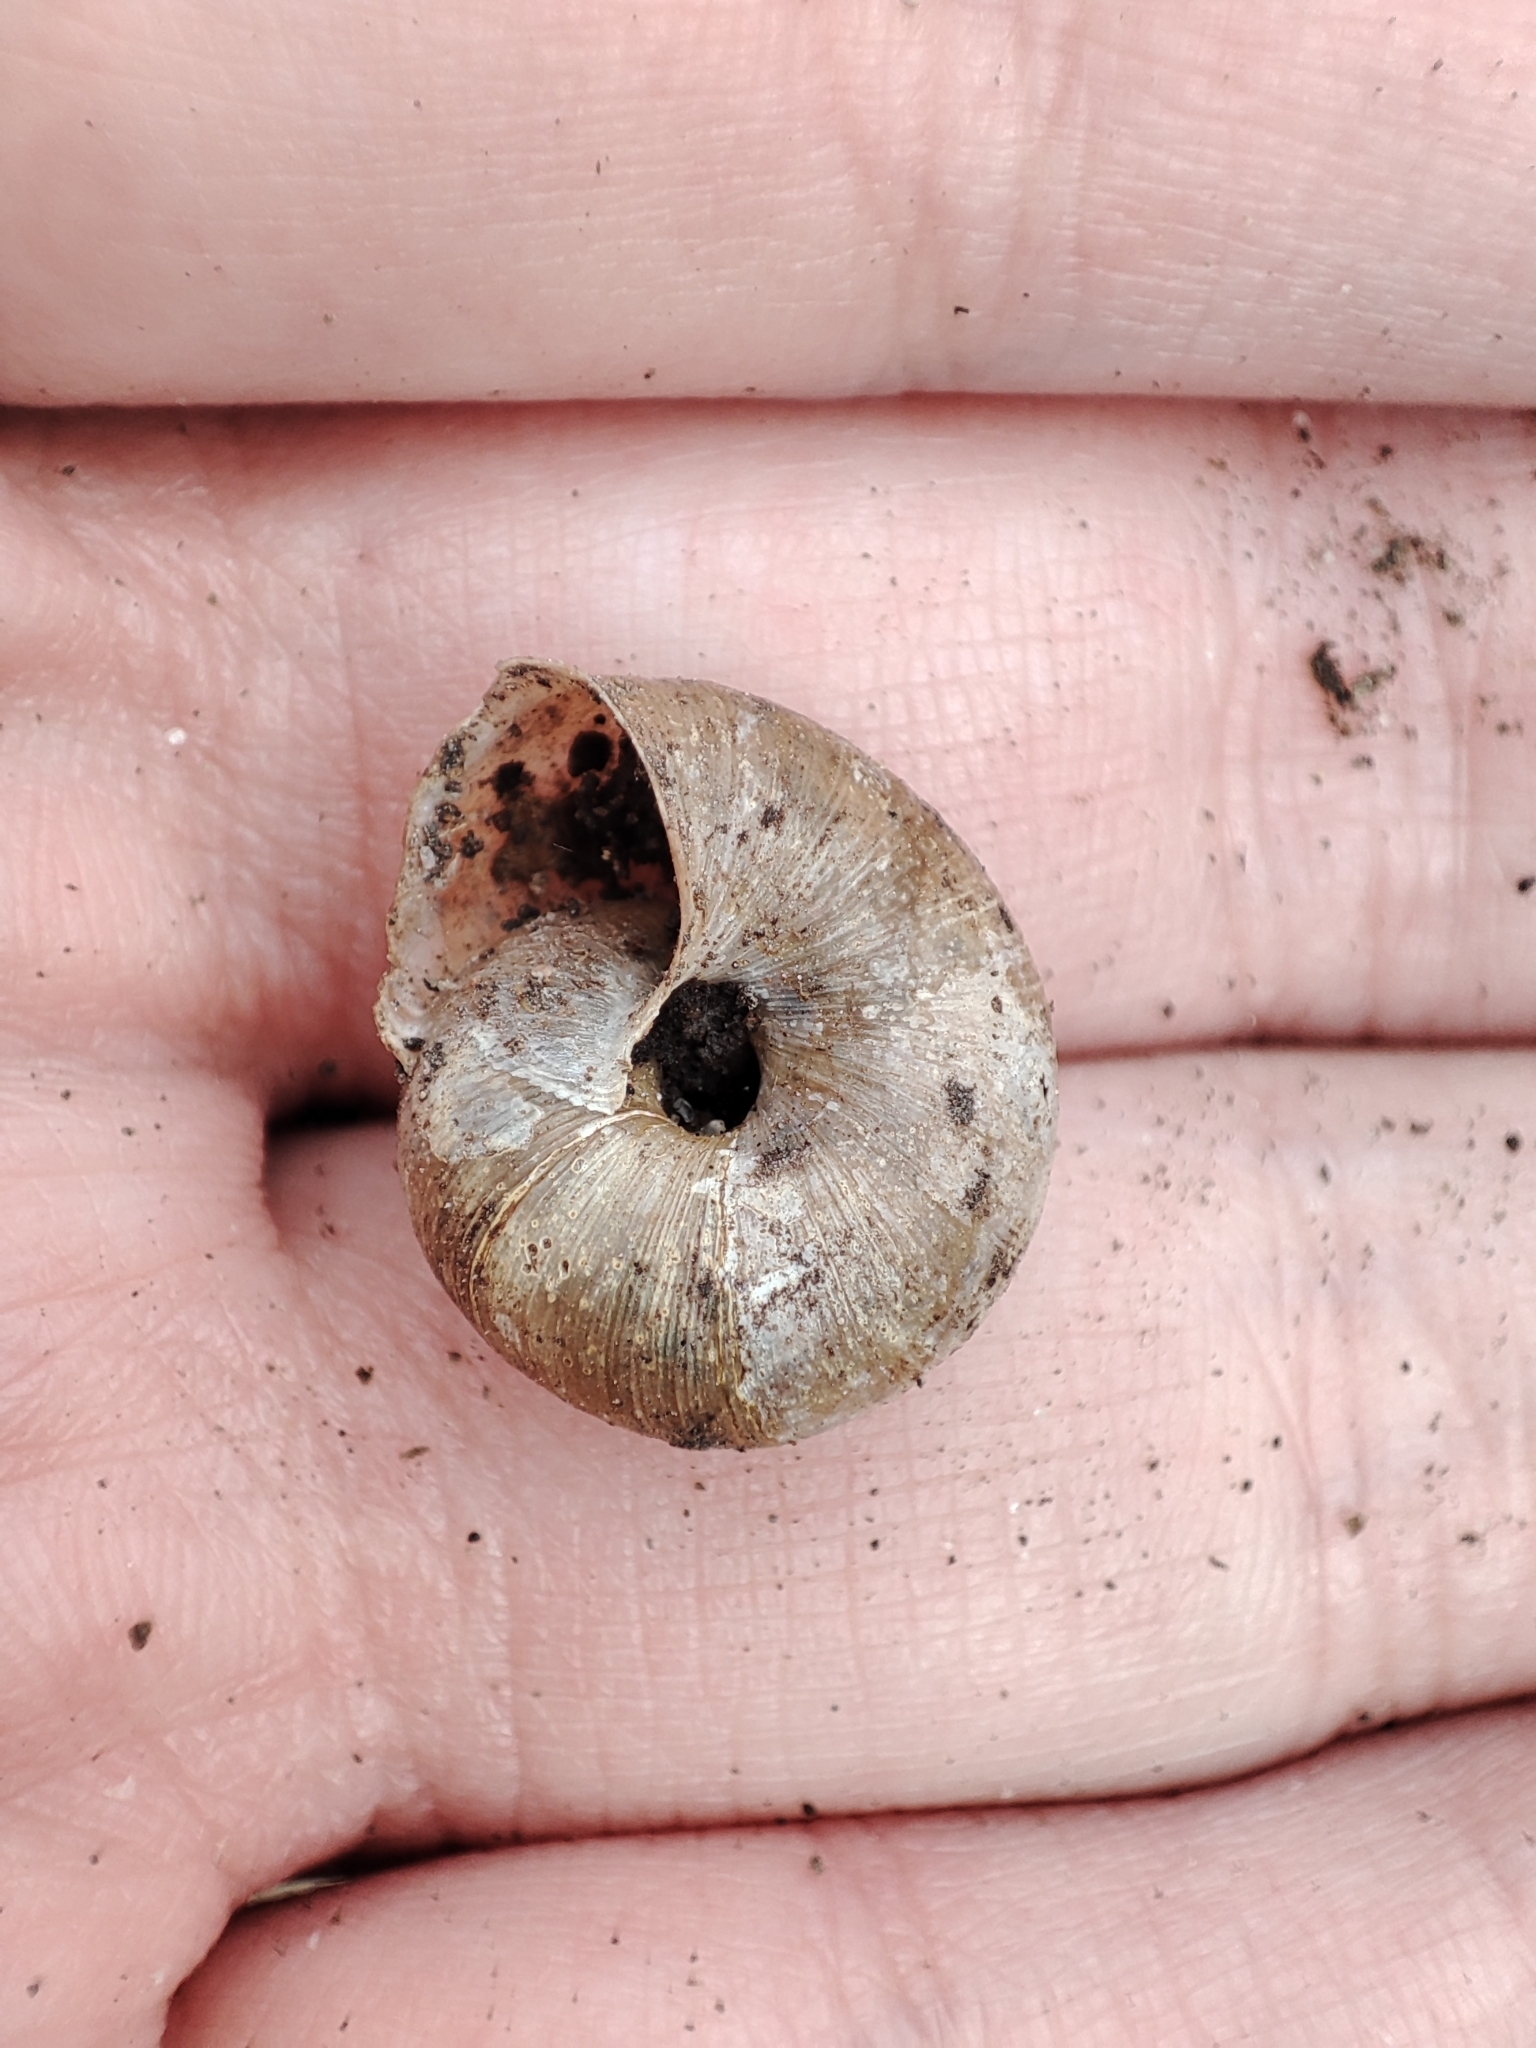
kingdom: Animalia
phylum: Mollusca
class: Gastropoda
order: Stylommatophora
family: Hygromiidae
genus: Euomphalia
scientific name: Euomphalia strigella
